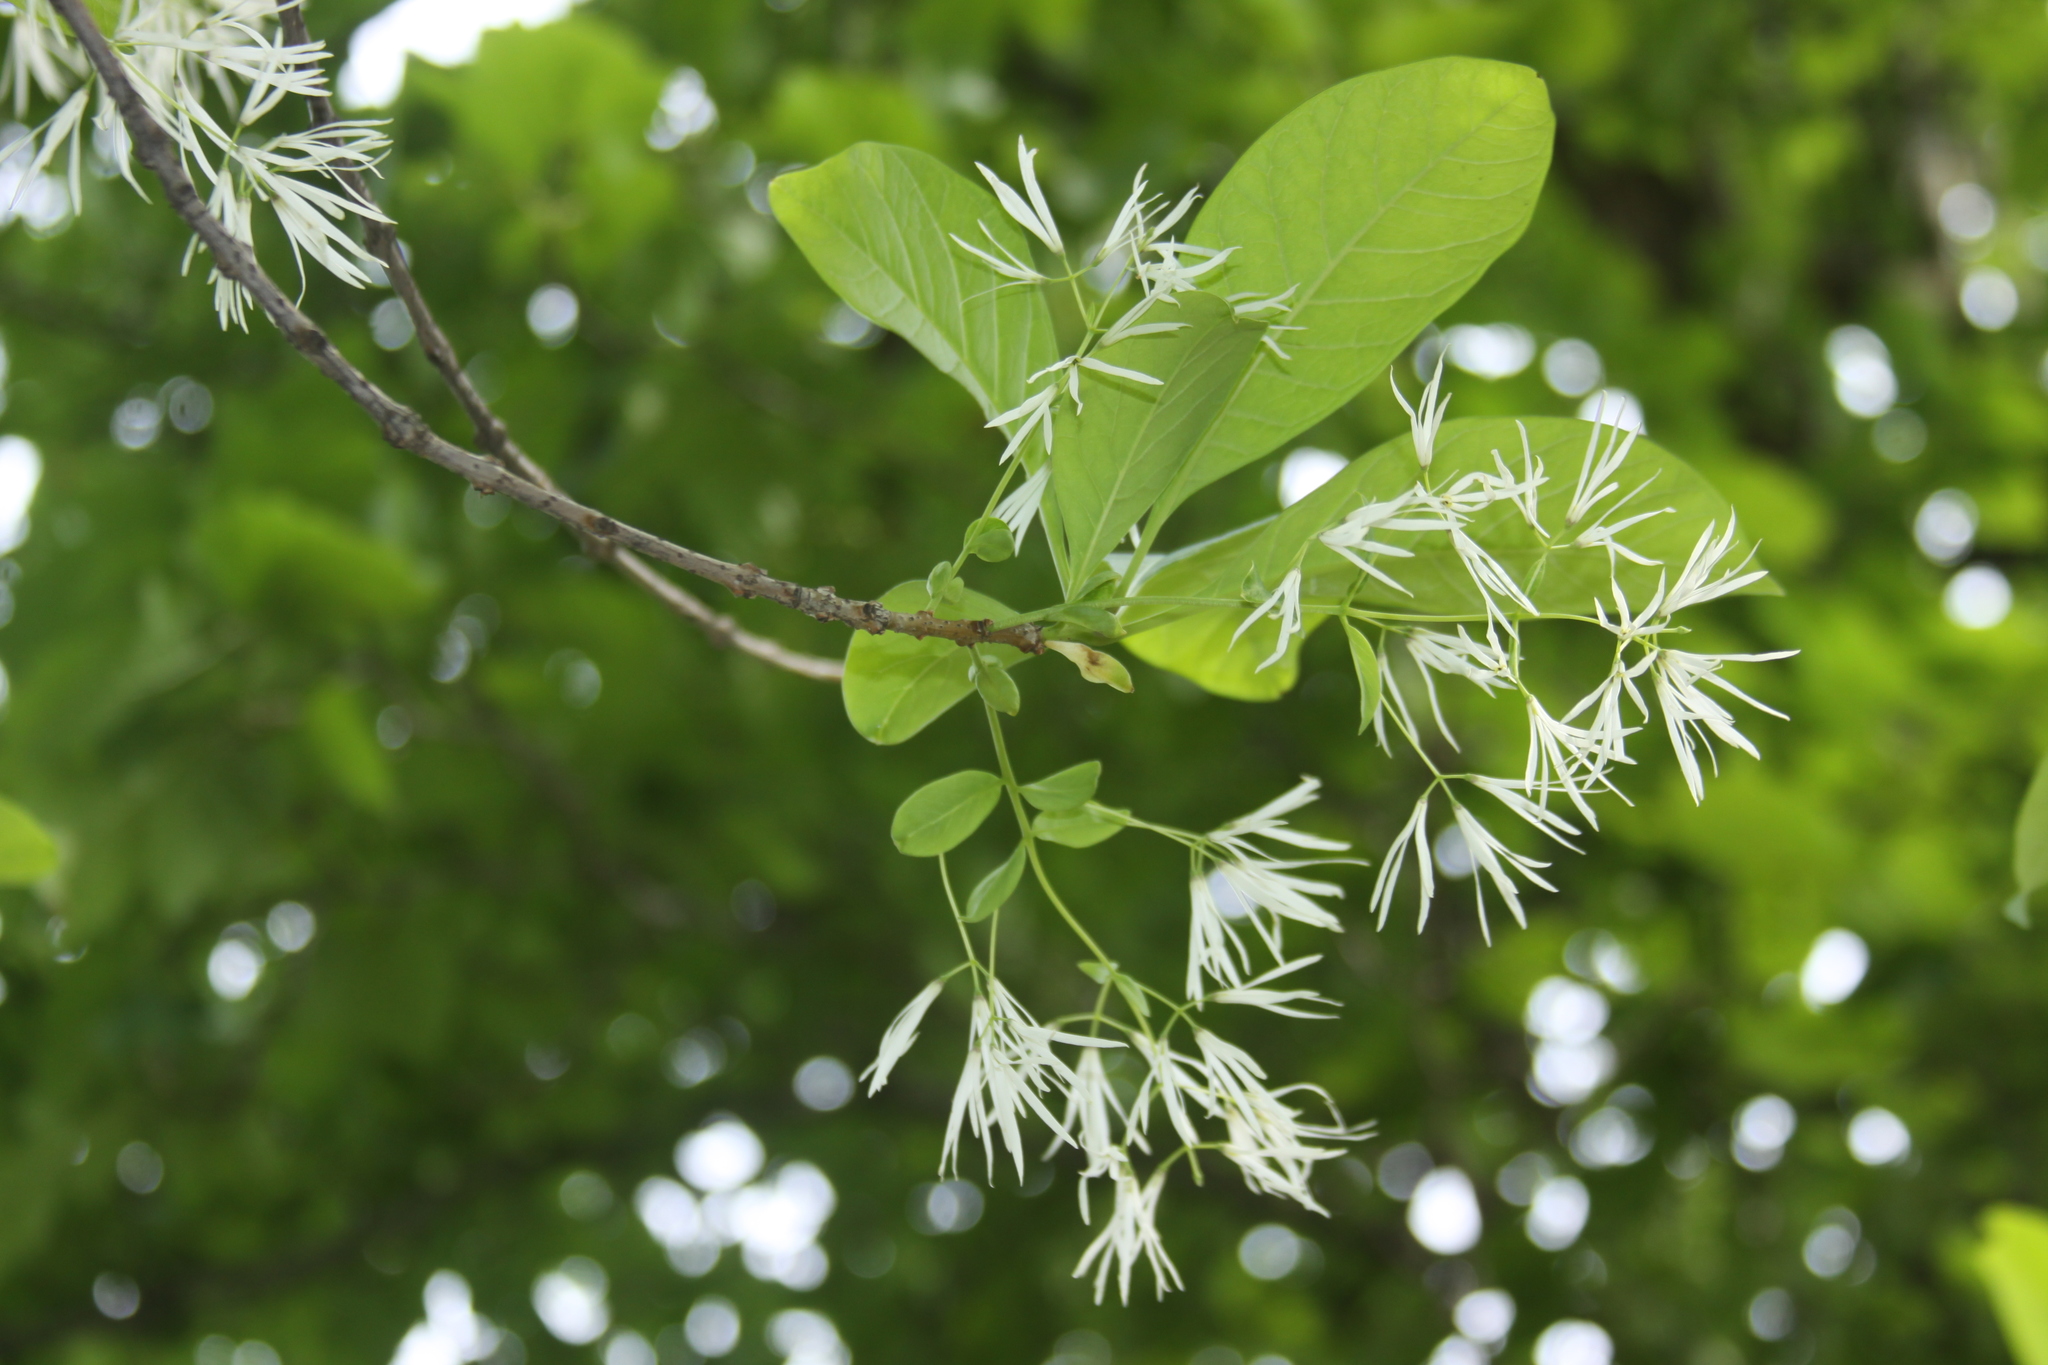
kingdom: Plantae
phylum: Tracheophyta
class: Magnoliopsida
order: Lamiales
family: Oleaceae
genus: Chionanthus
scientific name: Chionanthus virginicus
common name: American fringetree
